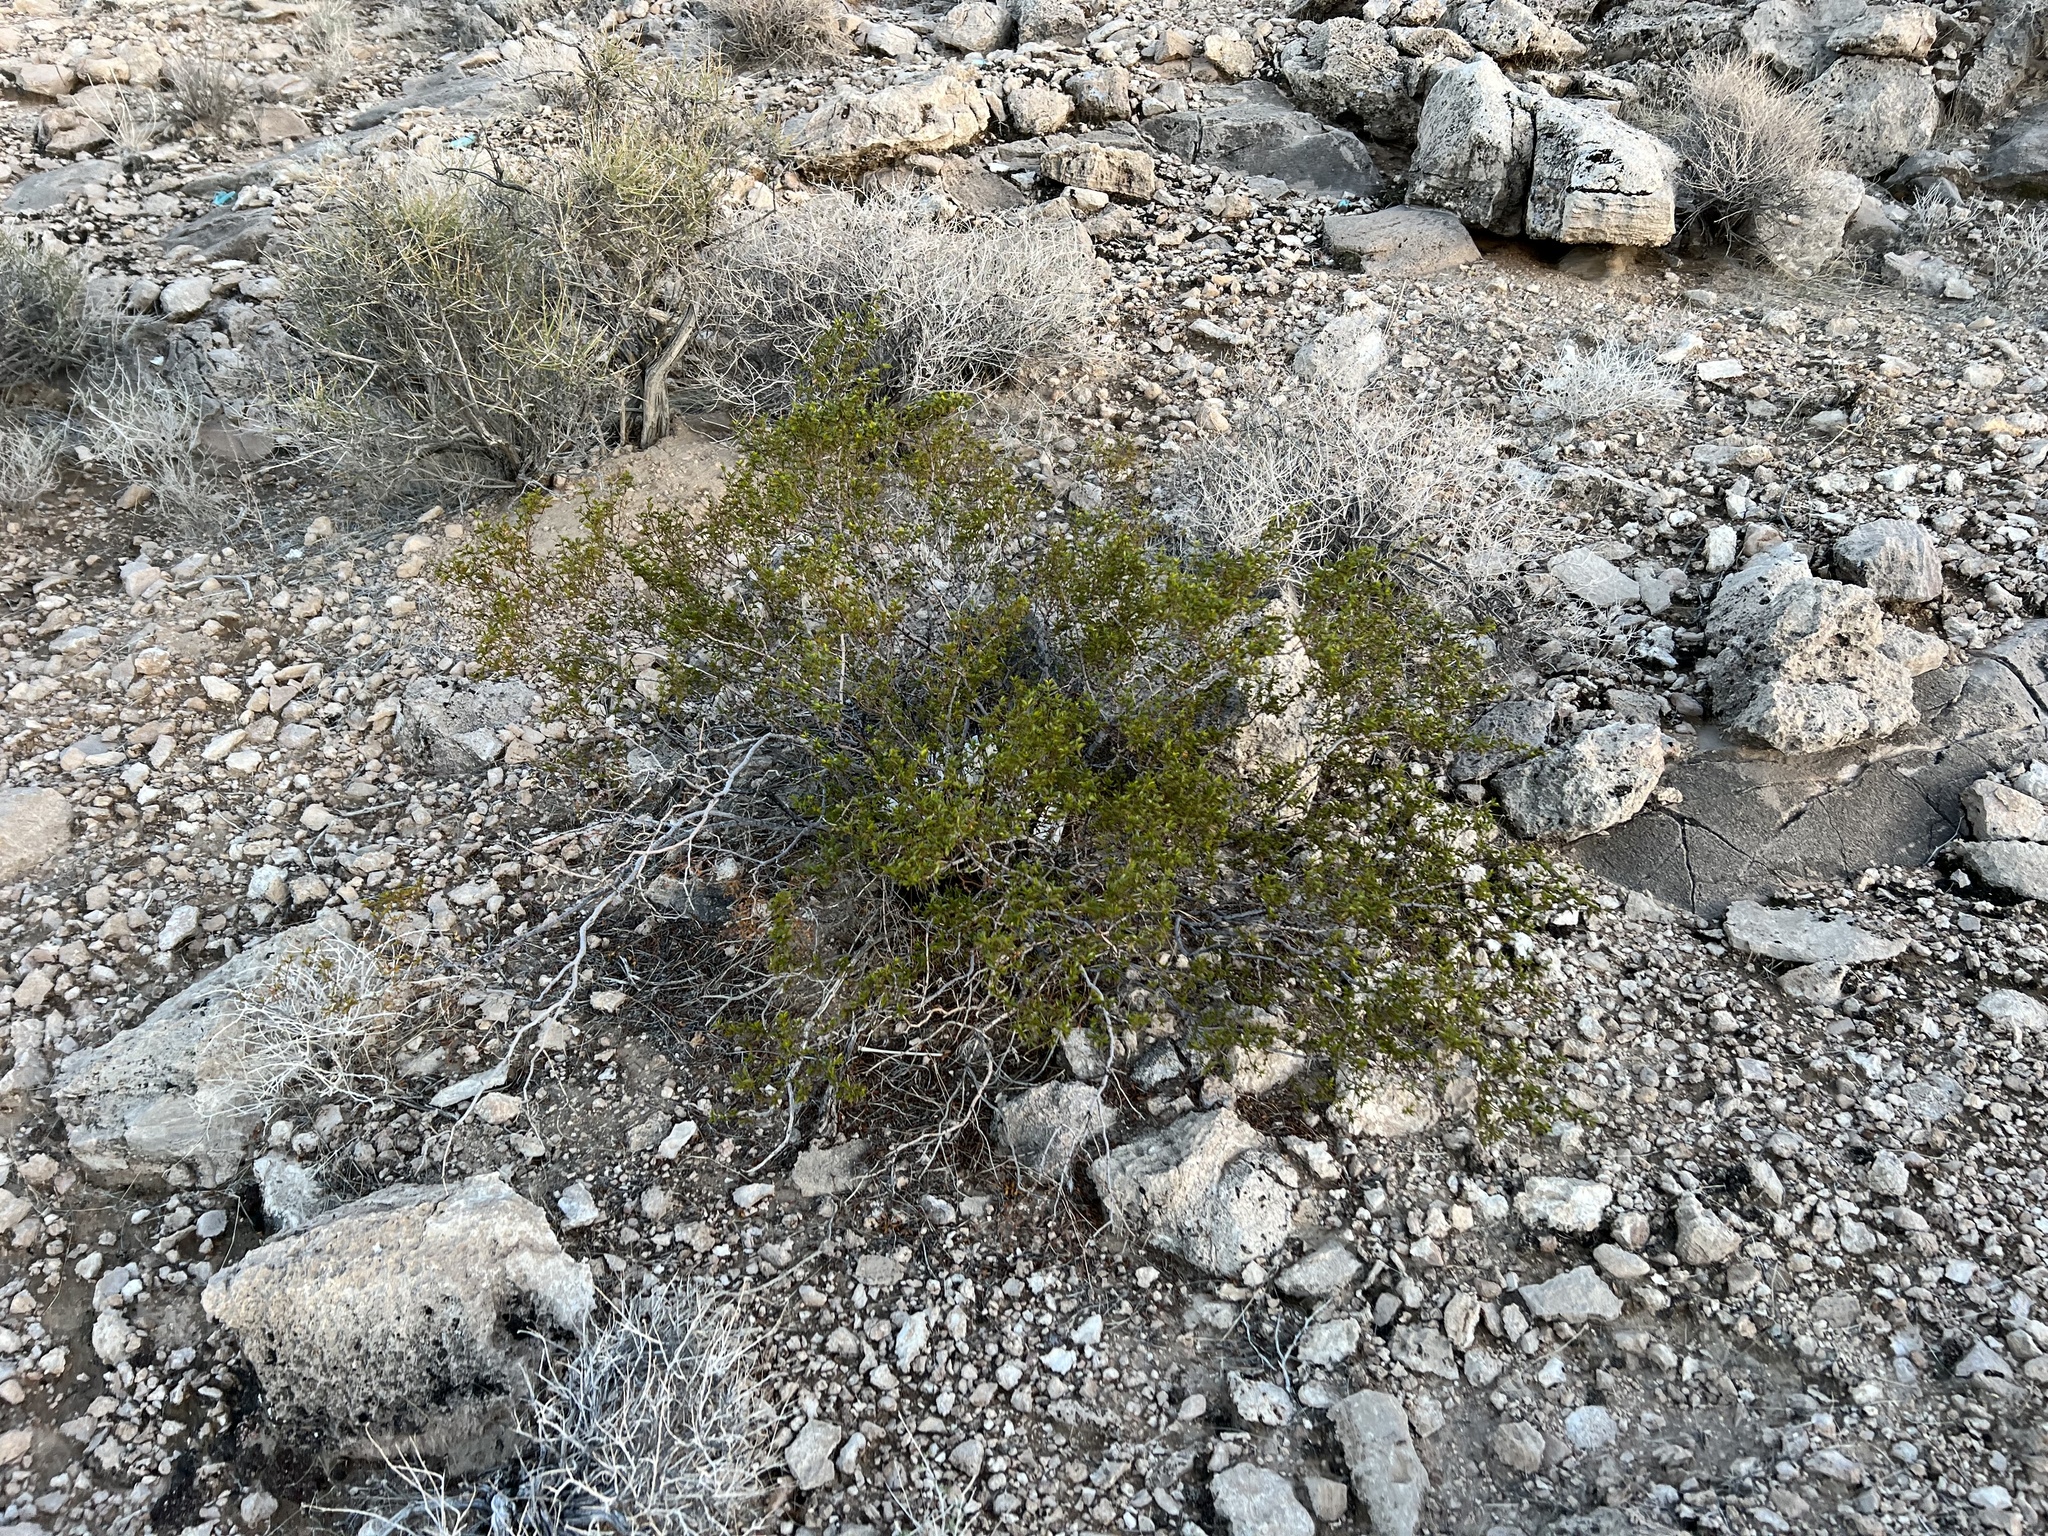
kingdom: Plantae
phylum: Tracheophyta
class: Magnoliopsida
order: Zygophyllales
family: Zygophyllaceae
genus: Larrea
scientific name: Larrea tridentata
